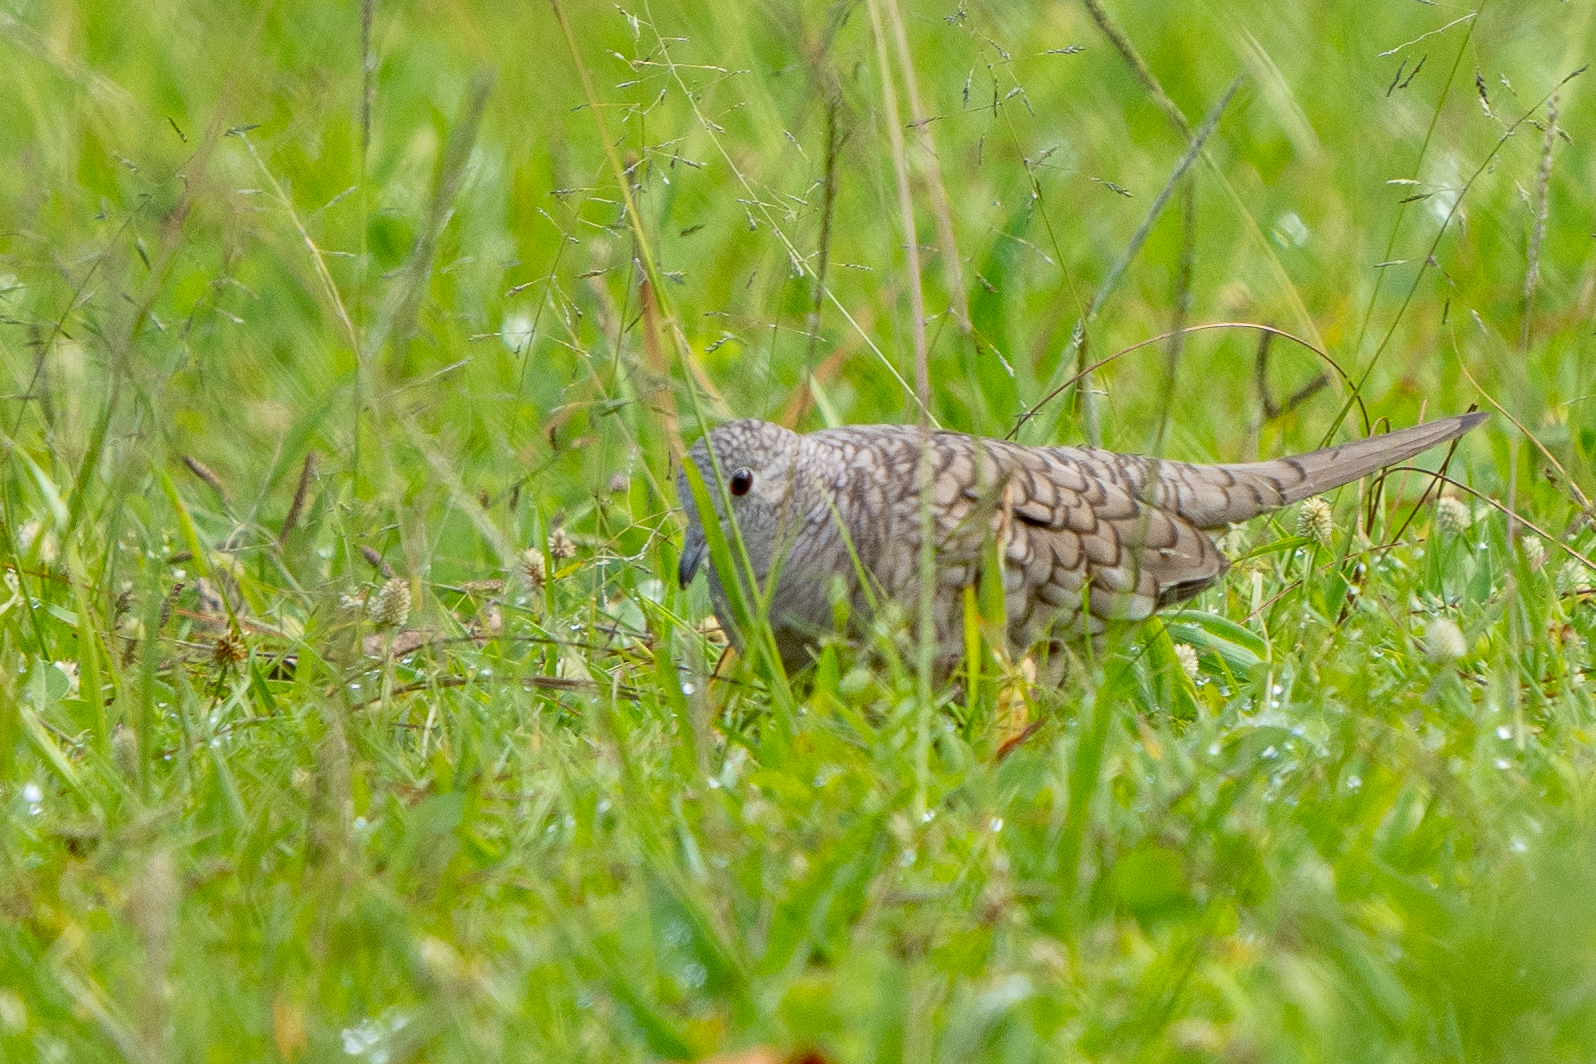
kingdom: Animalia
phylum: Chordata
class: Aves
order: Columbiformes
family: Columbidae
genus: Columbina
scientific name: Columbina inca
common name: Inca dove
